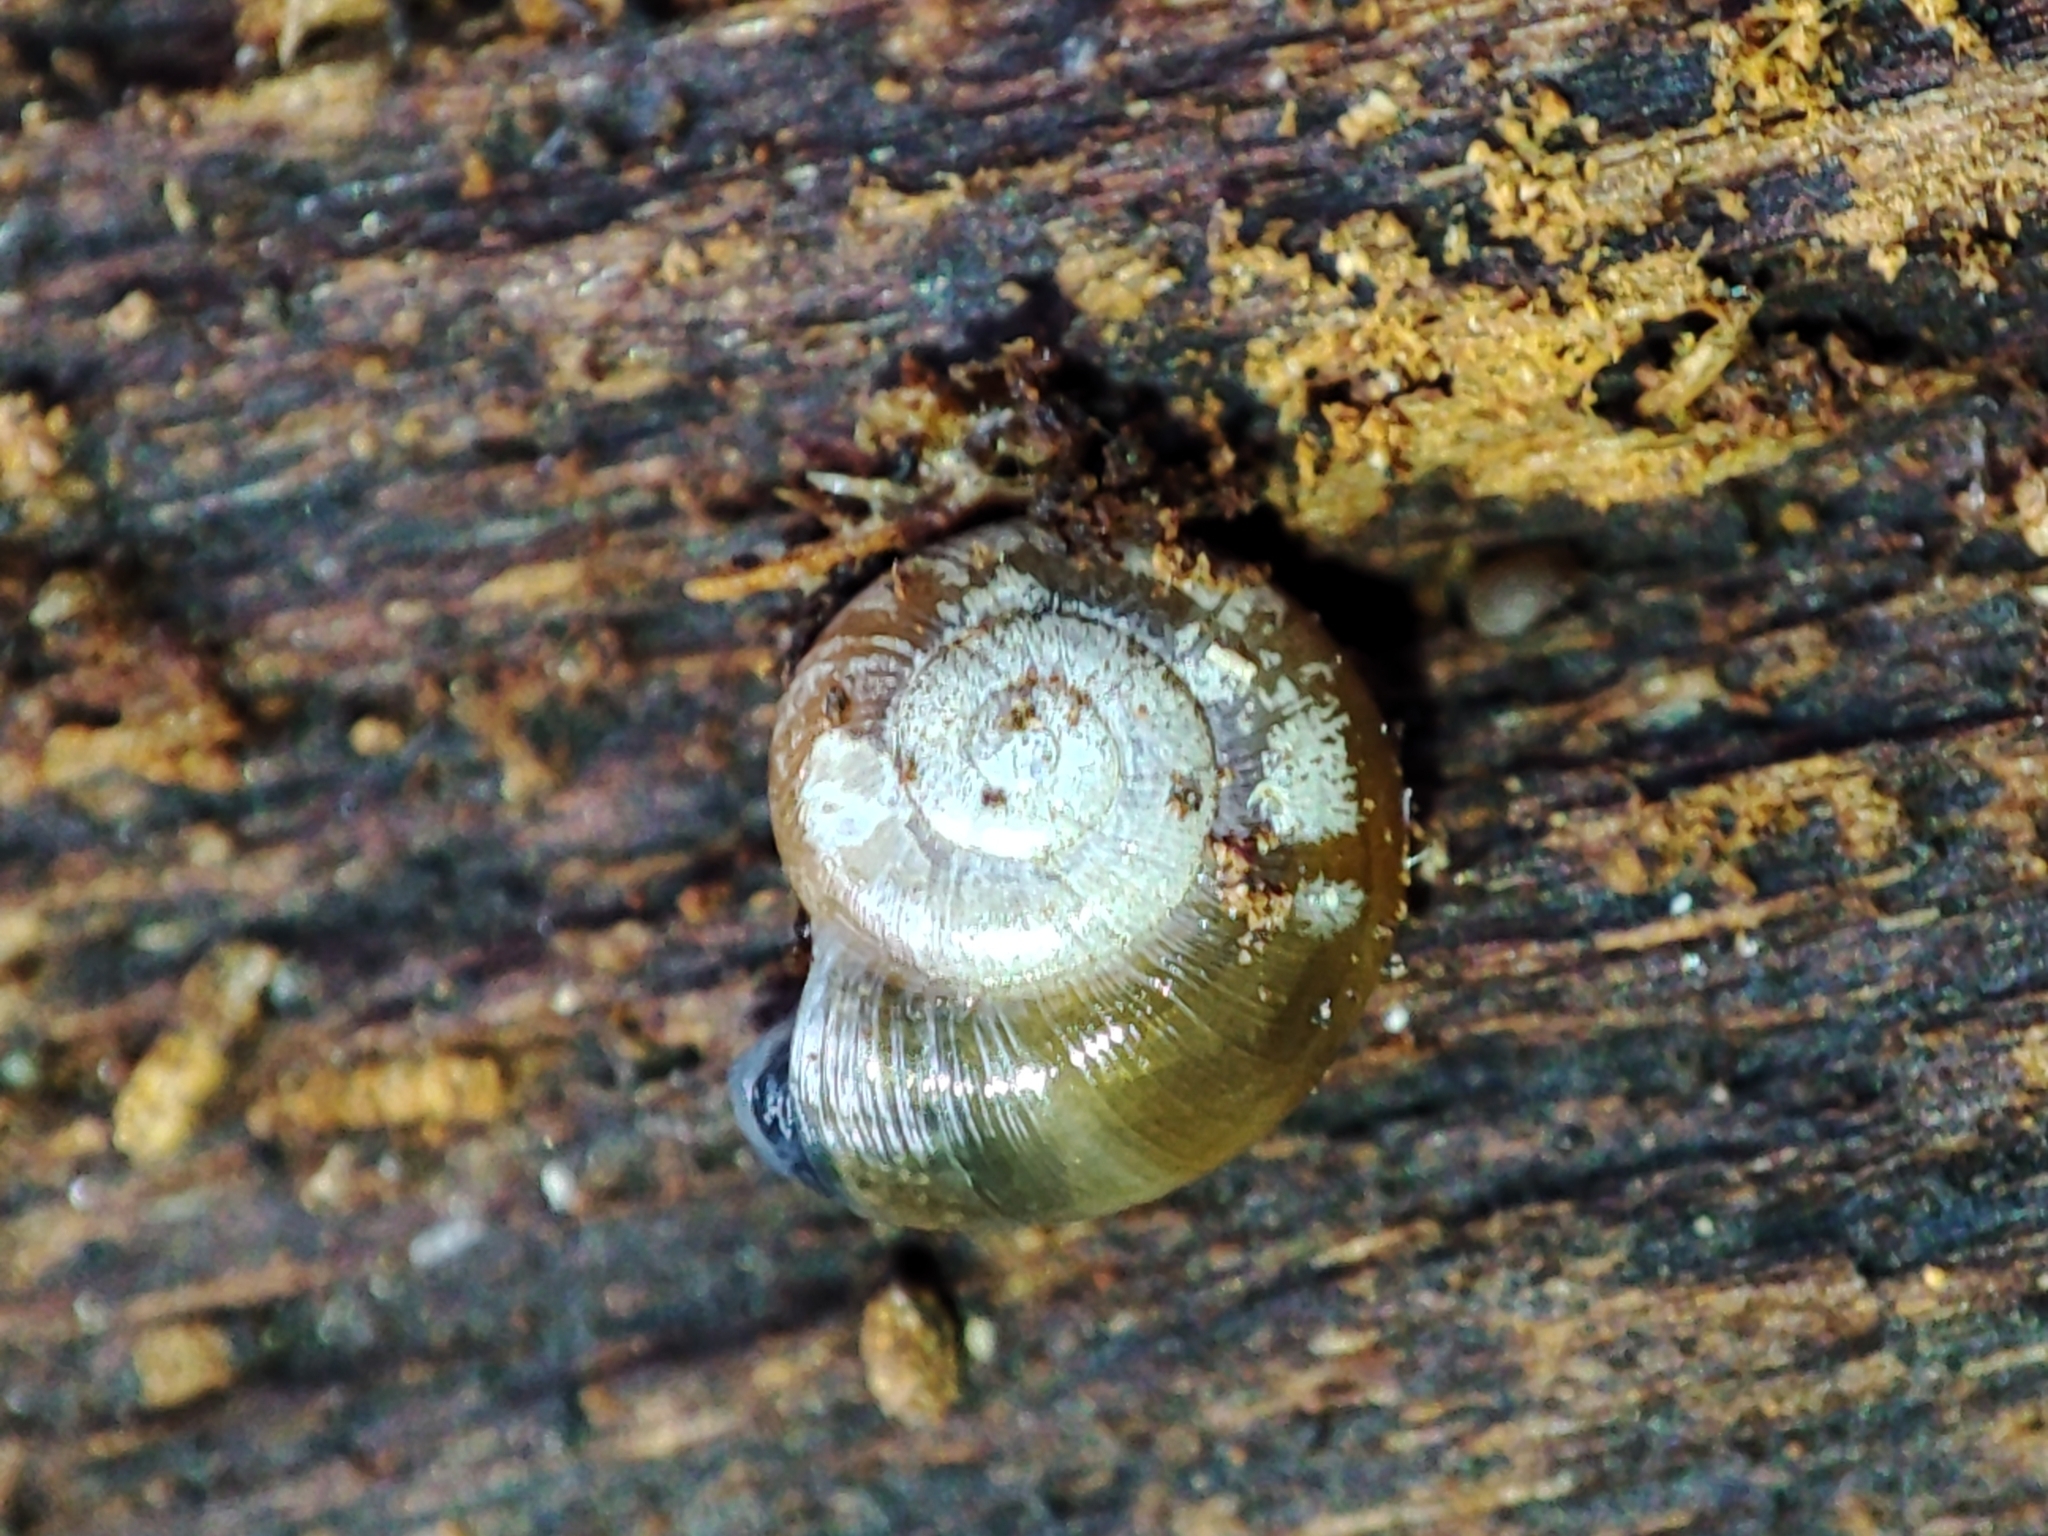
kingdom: Animalia
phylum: Mollusca
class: Gastropoda
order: Stylommatophora
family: Gastrodontidae
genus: Perpolita
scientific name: Perpolita hammonis
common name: Rayed glass snail
